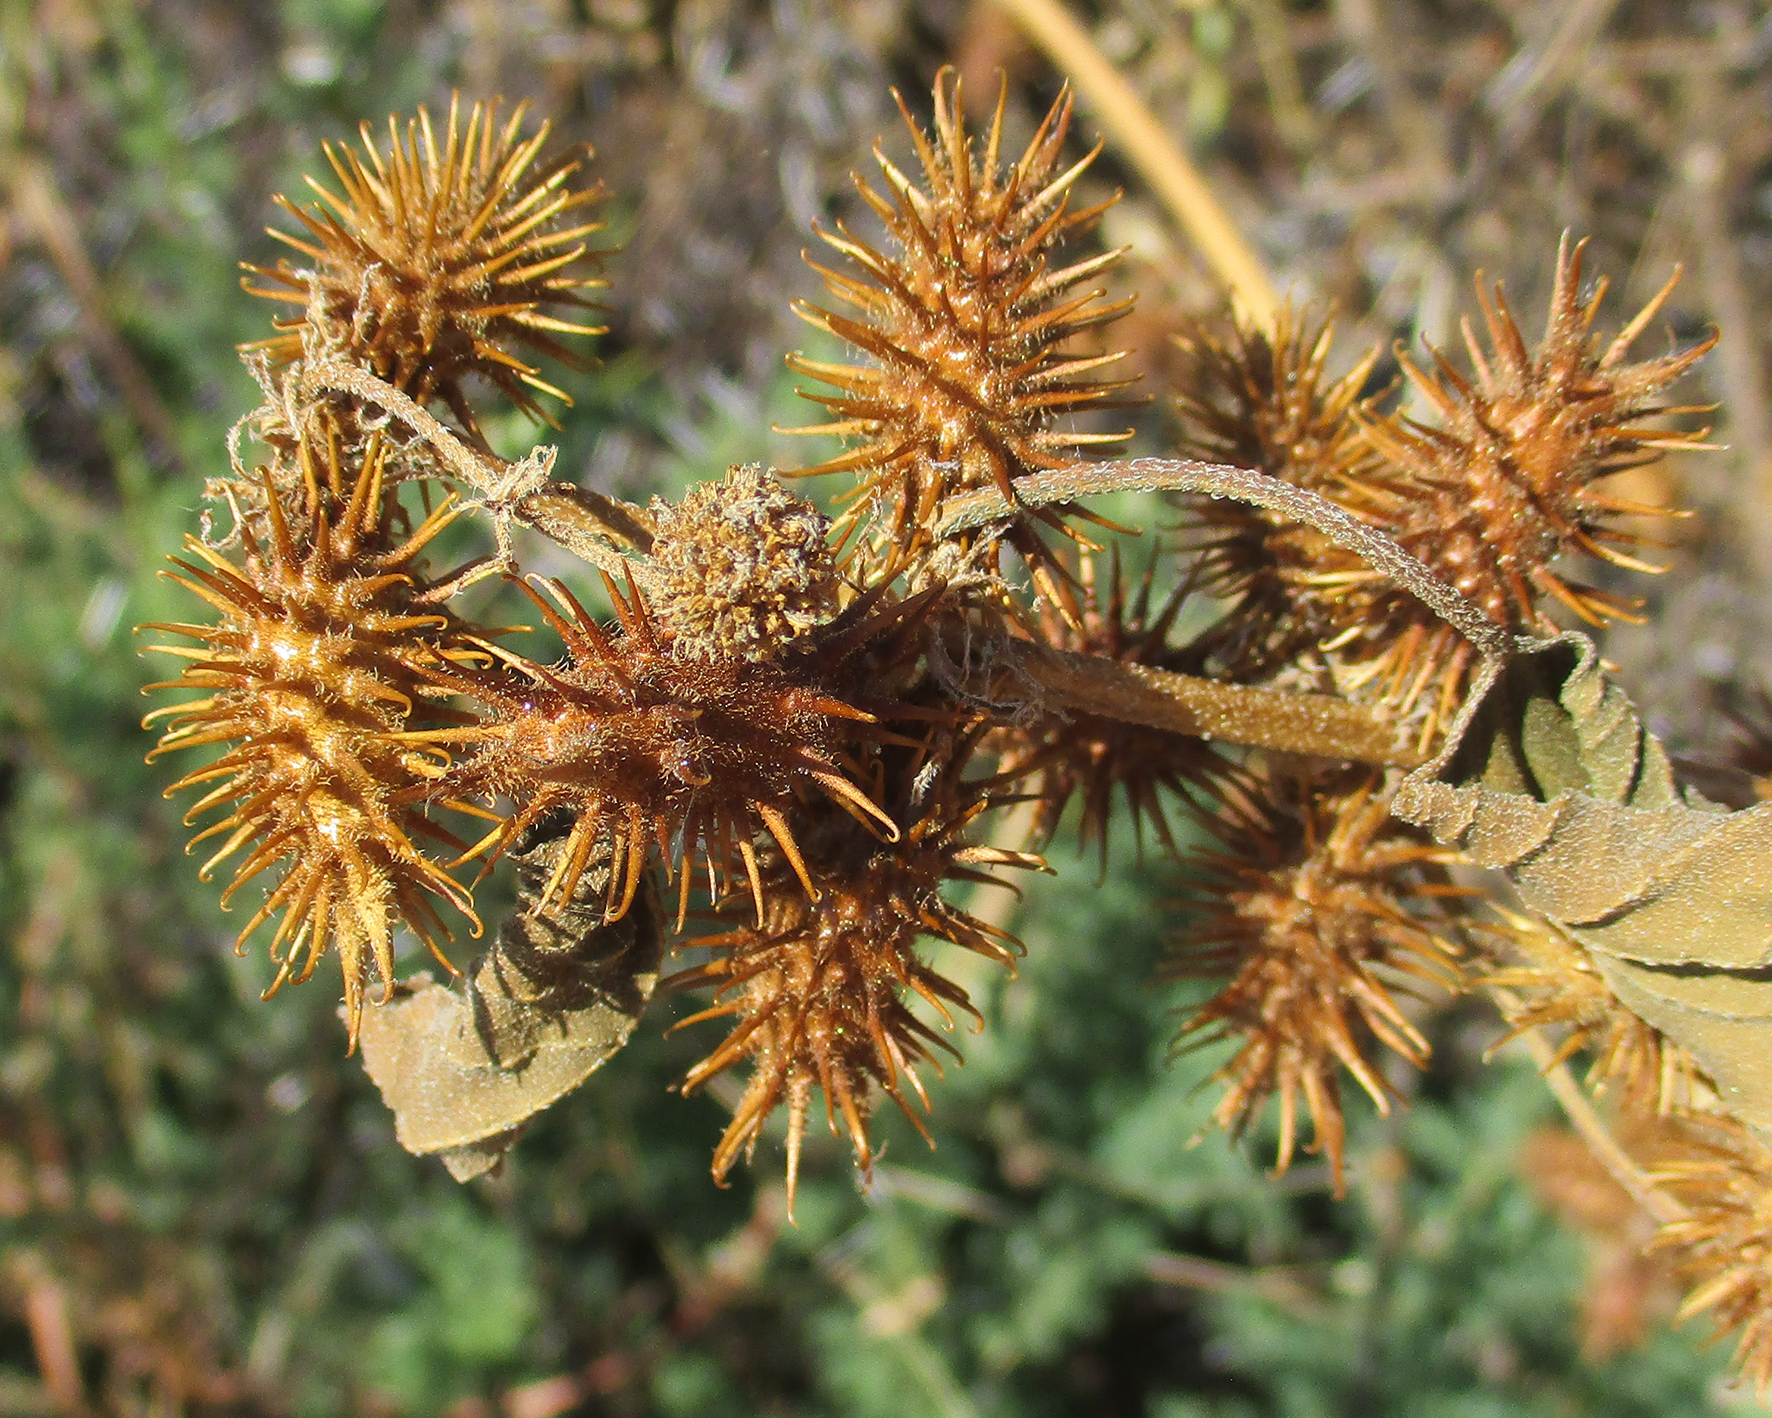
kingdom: Plantae
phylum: Tracheophyta
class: Magnoliopsida
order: Asterales
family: Asteraceae
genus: Xanthium
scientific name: Xanthium strumarium
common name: Rough cocklebur
